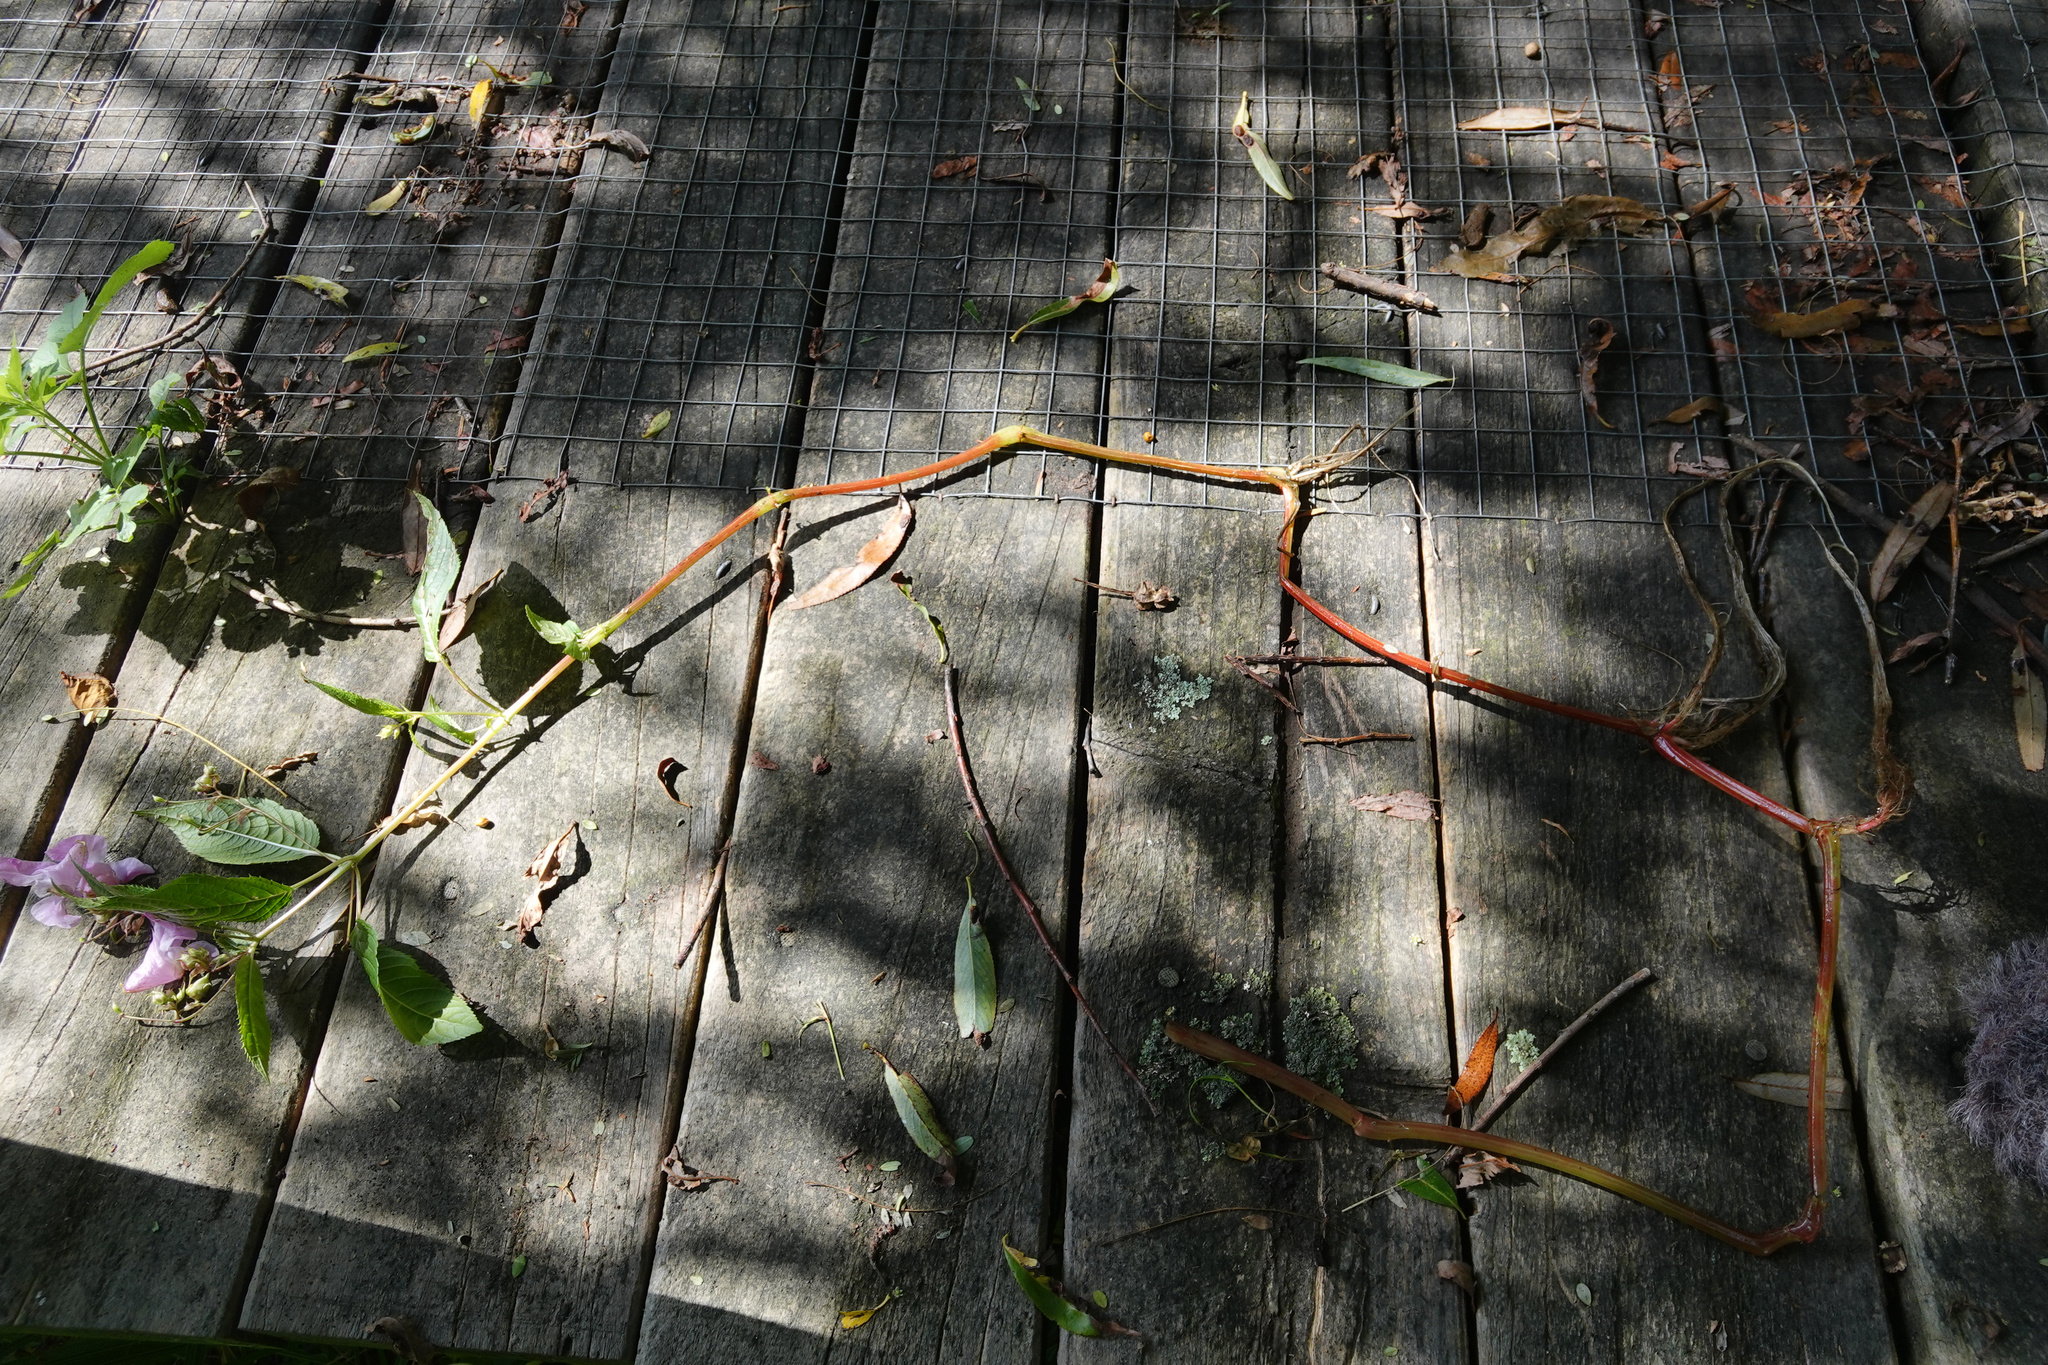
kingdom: Plantae
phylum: Tracheophyta
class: Magnoliopsida
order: Ericales
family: Balsaminaceae
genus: Impatiens
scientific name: Impatiens glandulifera
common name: Himalayan balsam
